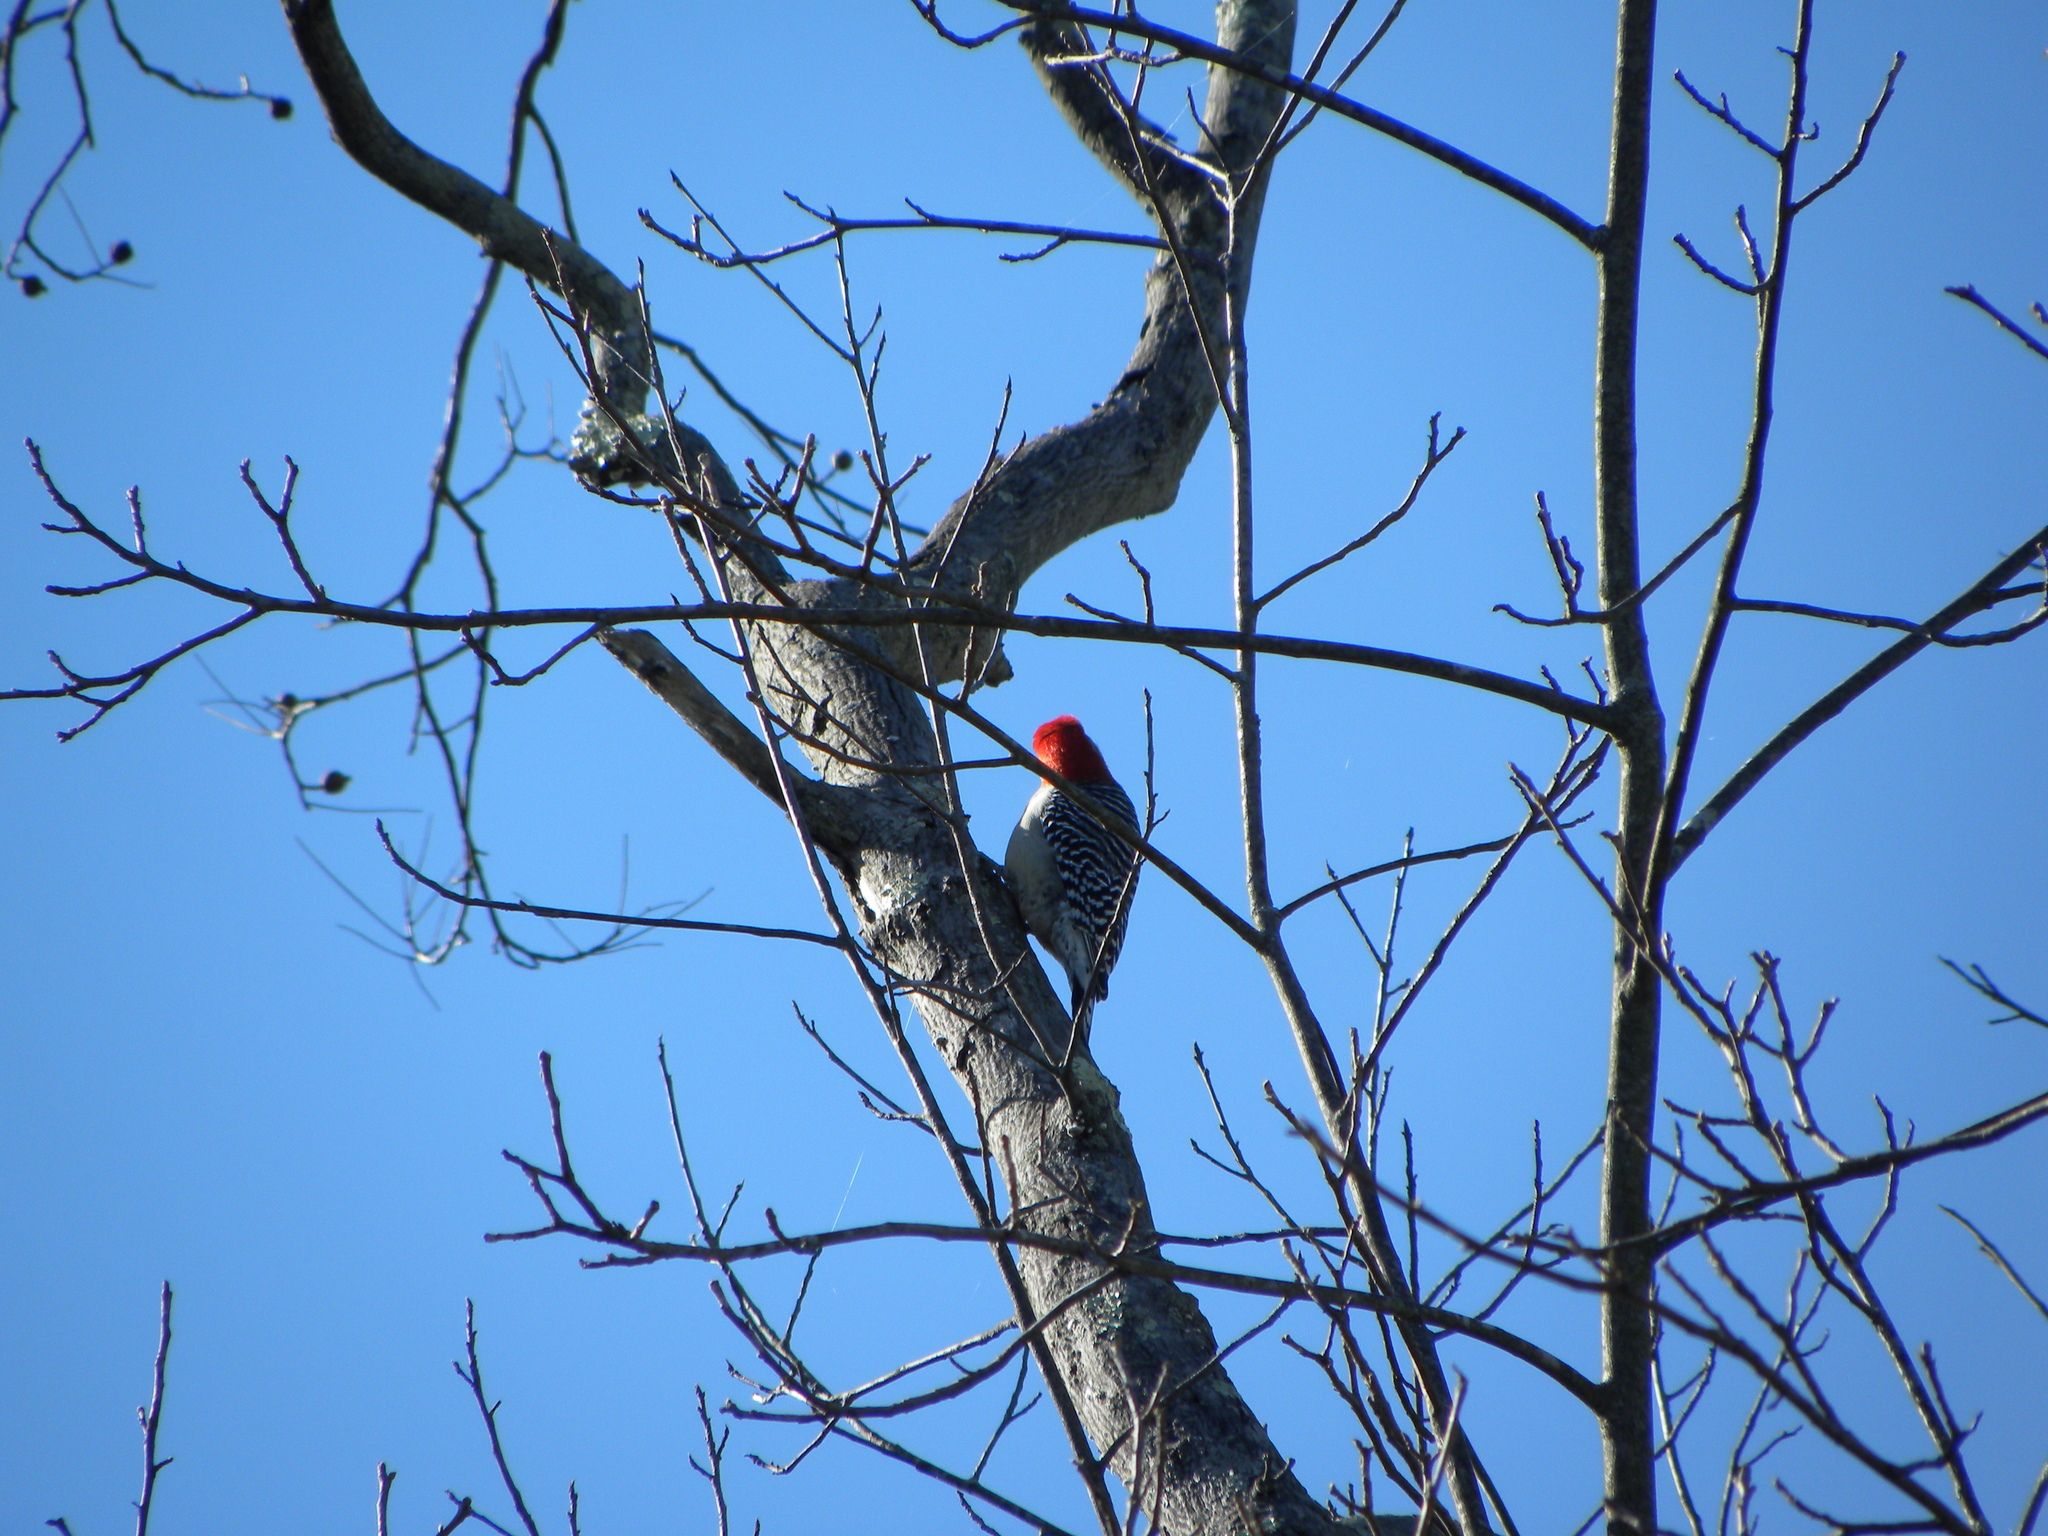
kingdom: Animalia
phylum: Chordata
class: Aves
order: Piciformes
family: Picidae
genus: Melanerpes
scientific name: Melanerpes carolinus
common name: Red-bellied woodpecker
